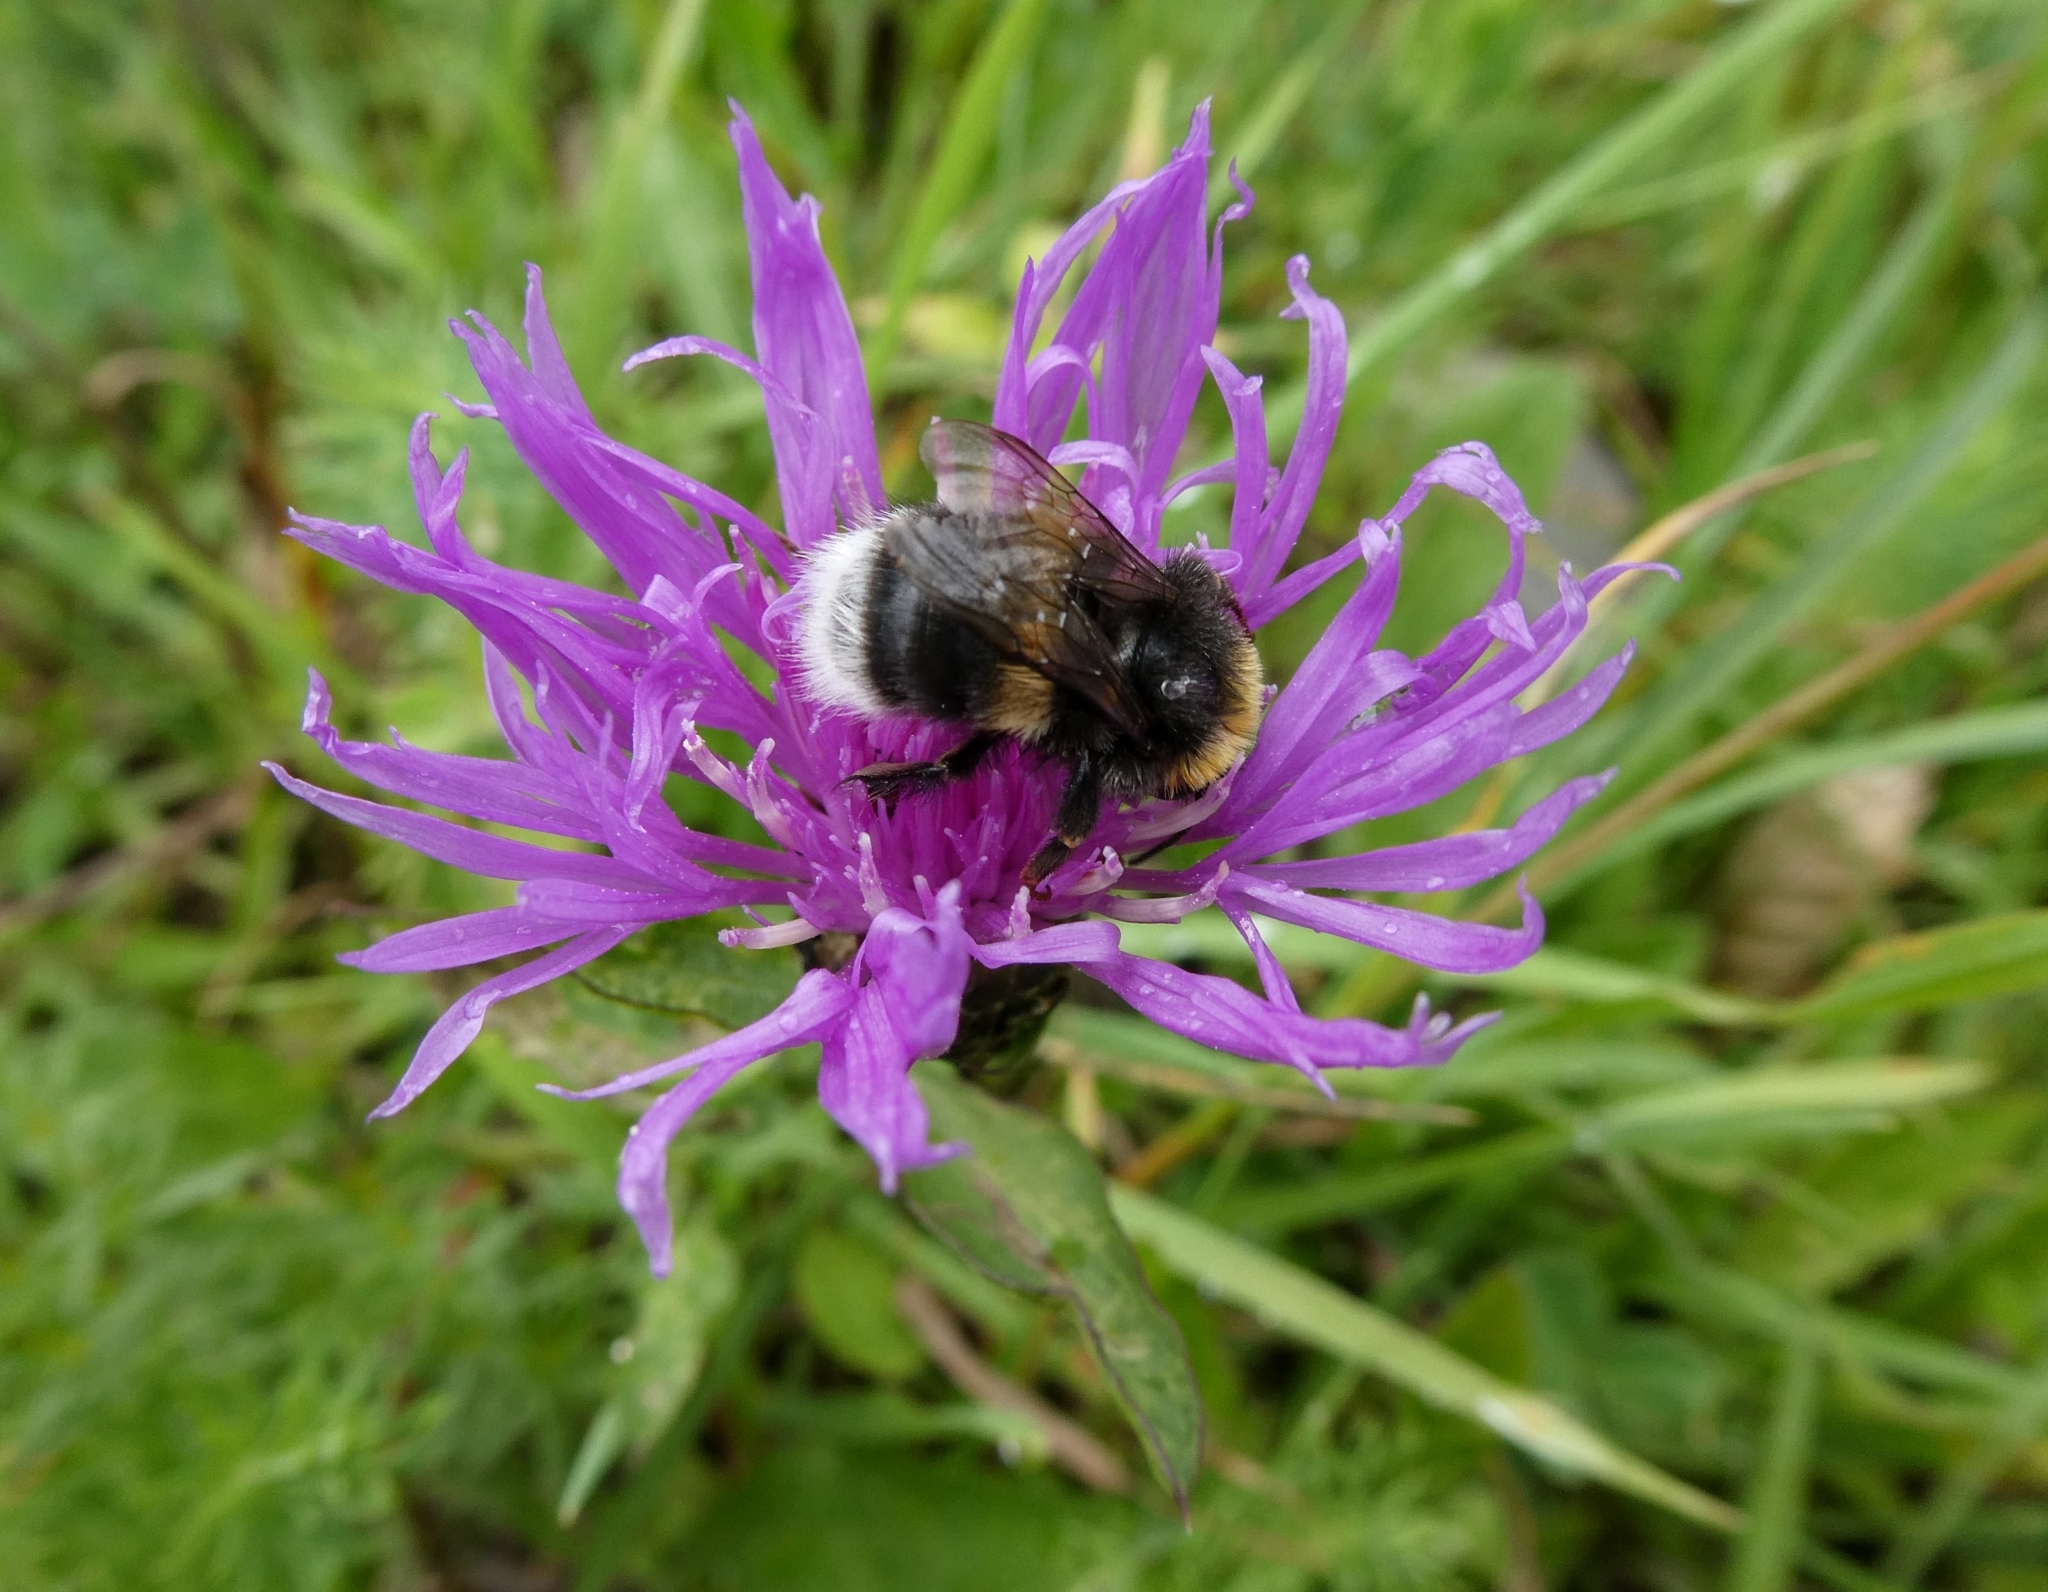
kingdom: Animalia
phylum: Arthropoda
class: Insecta
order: Hymenoptera
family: Apidae
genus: Bombus
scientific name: Bombus terrestris
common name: Buff-tailed bumblebee
